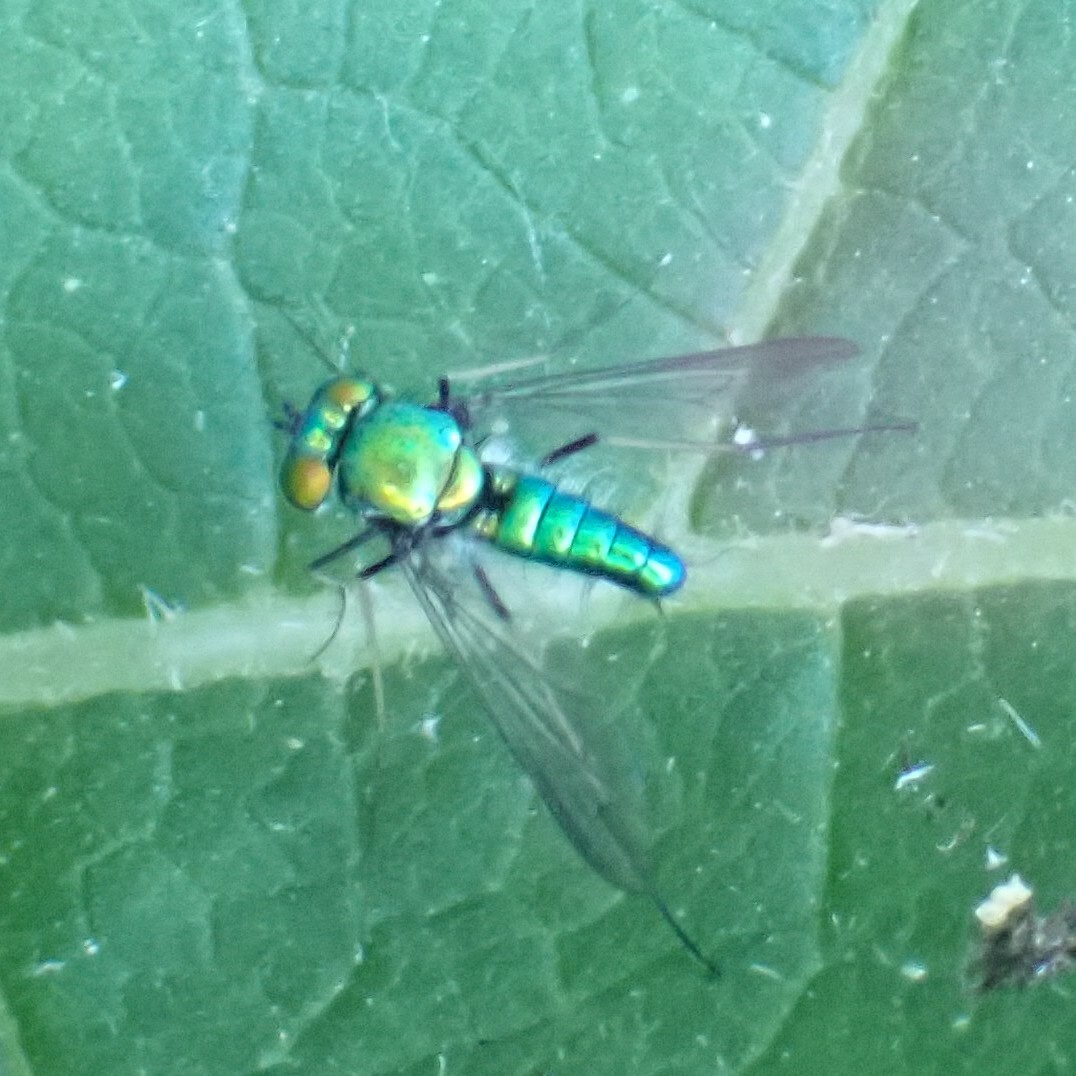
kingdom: Animalia
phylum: Arthropoda
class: Insecta
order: Diptera
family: Dolichopodidae
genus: Condylostylus
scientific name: Condylostylus comatus
